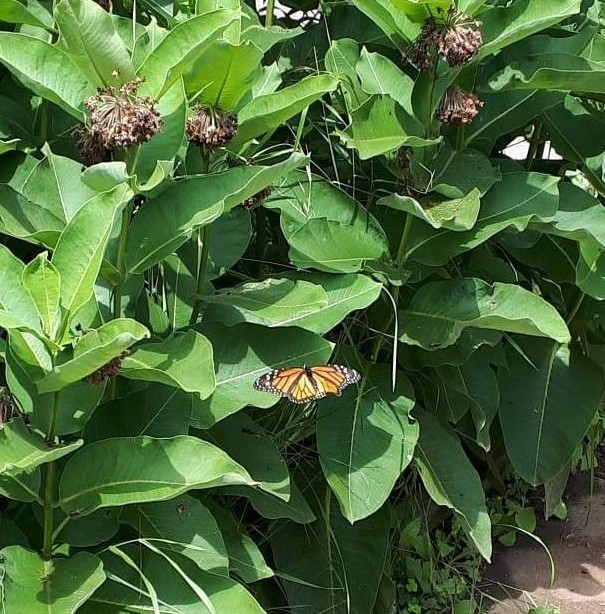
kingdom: Animalia
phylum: Arthropoda
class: Insecta
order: Lepidoptera
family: Nymphalidae
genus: Danaus
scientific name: Danaus plexippus
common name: Monarch
